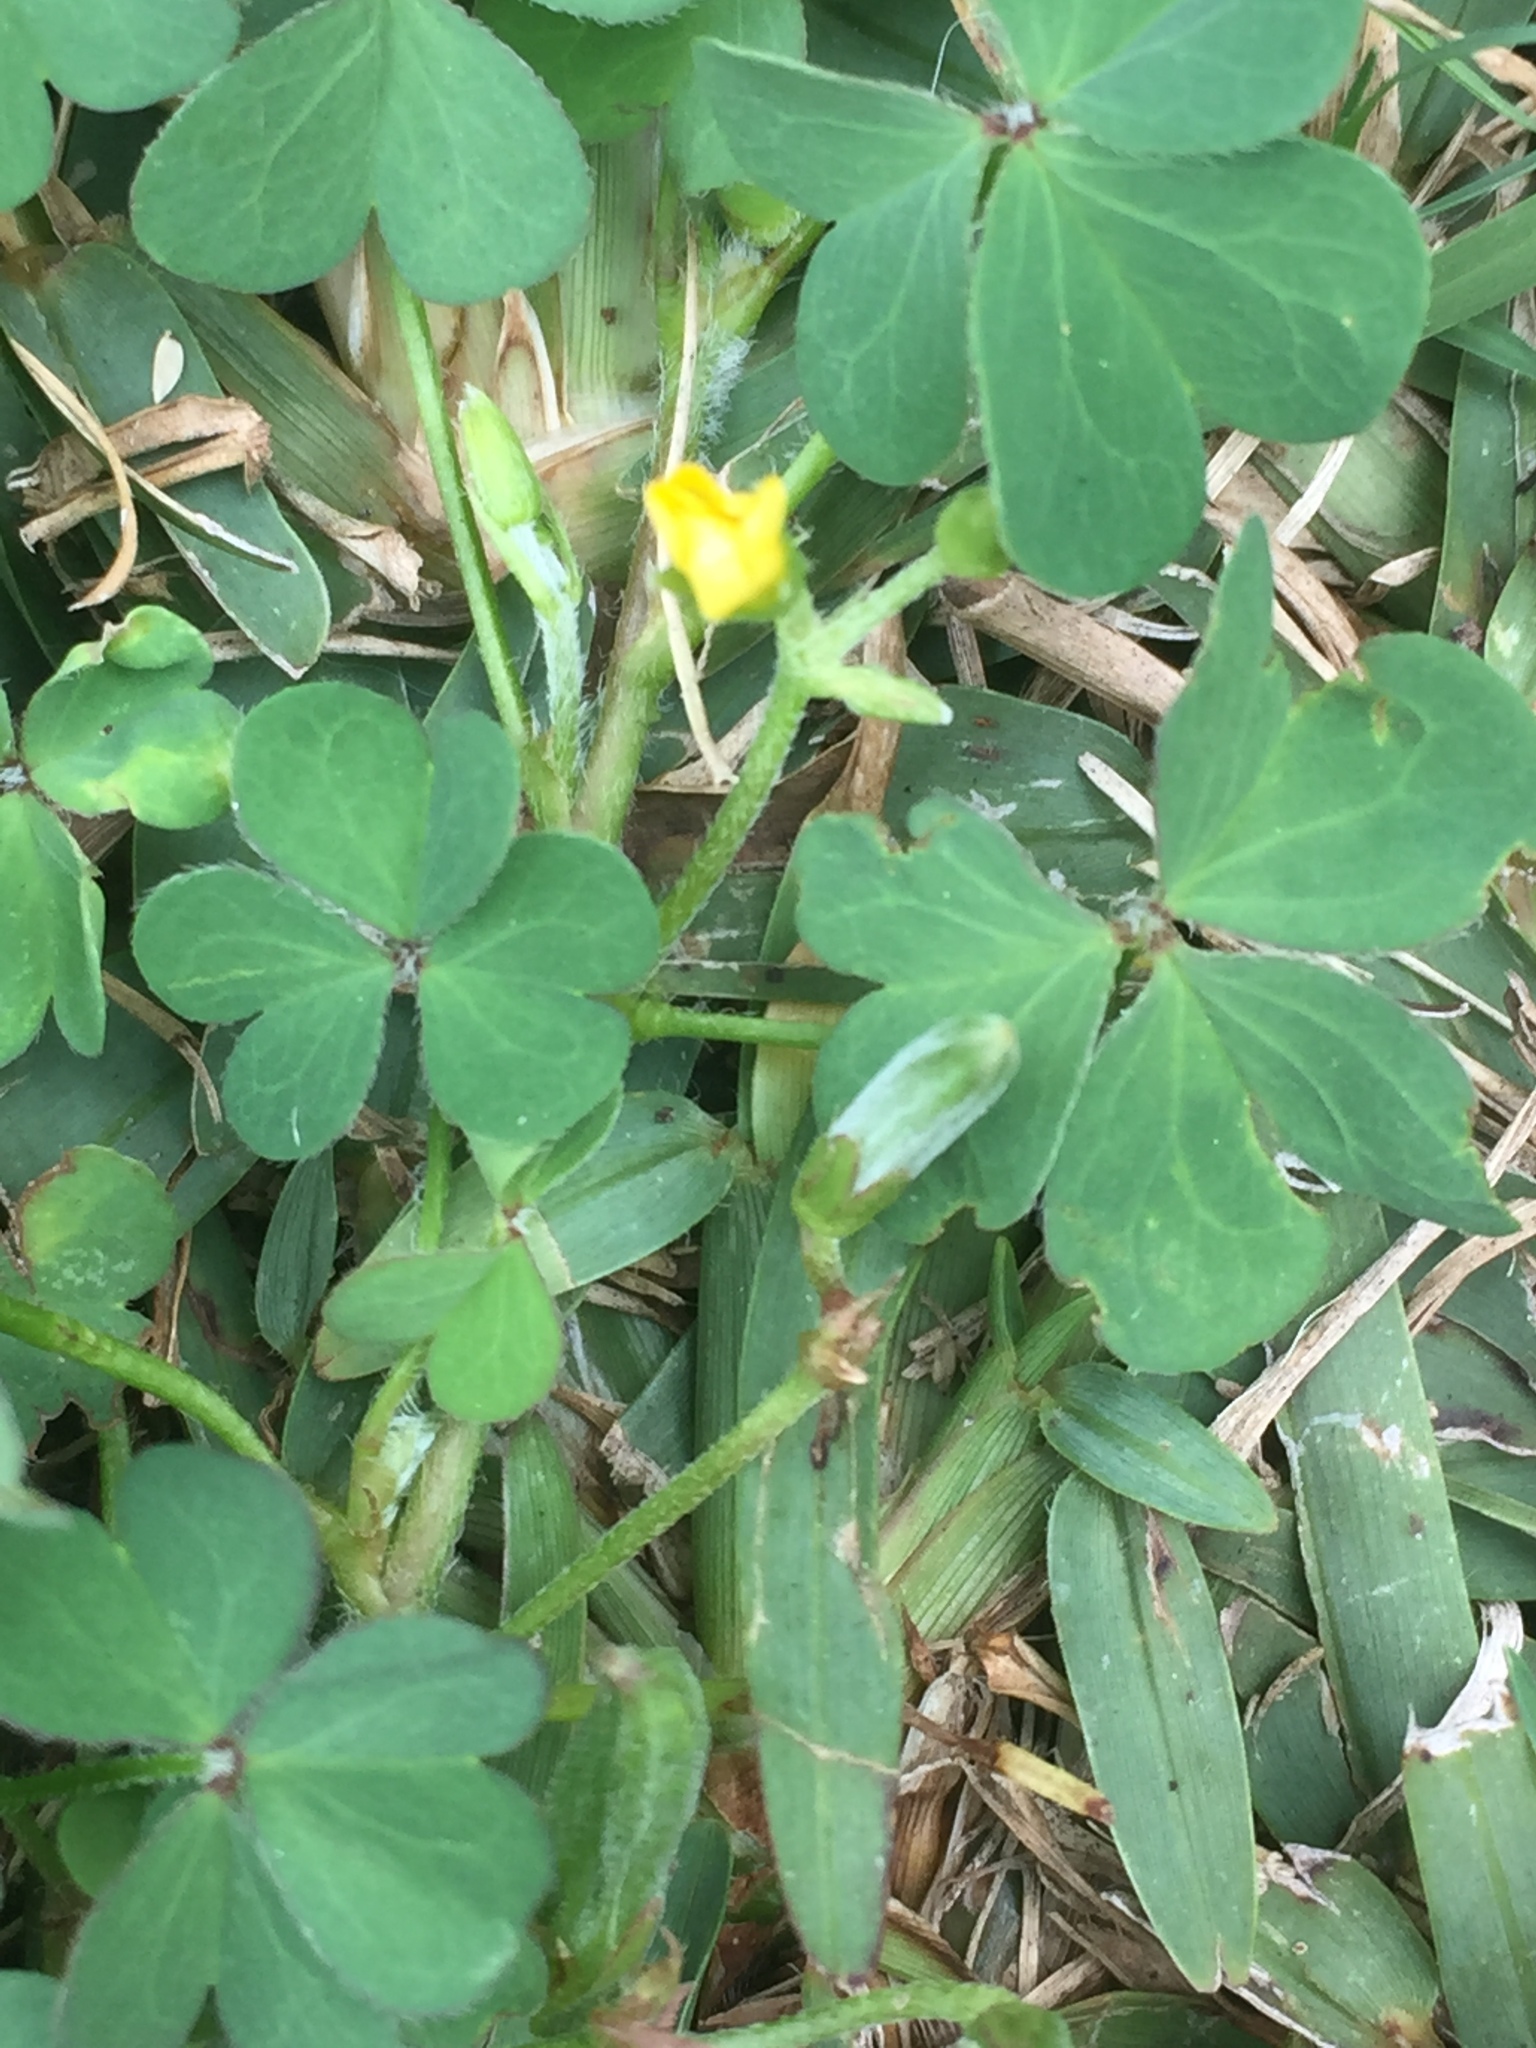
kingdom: Plantae
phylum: Tracheophyta
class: Magnoliopsida
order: Oxalidales
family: Oxalidaceae
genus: Oxalis
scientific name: Oxalis corniculata
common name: Procumbent yellow-sorrel
